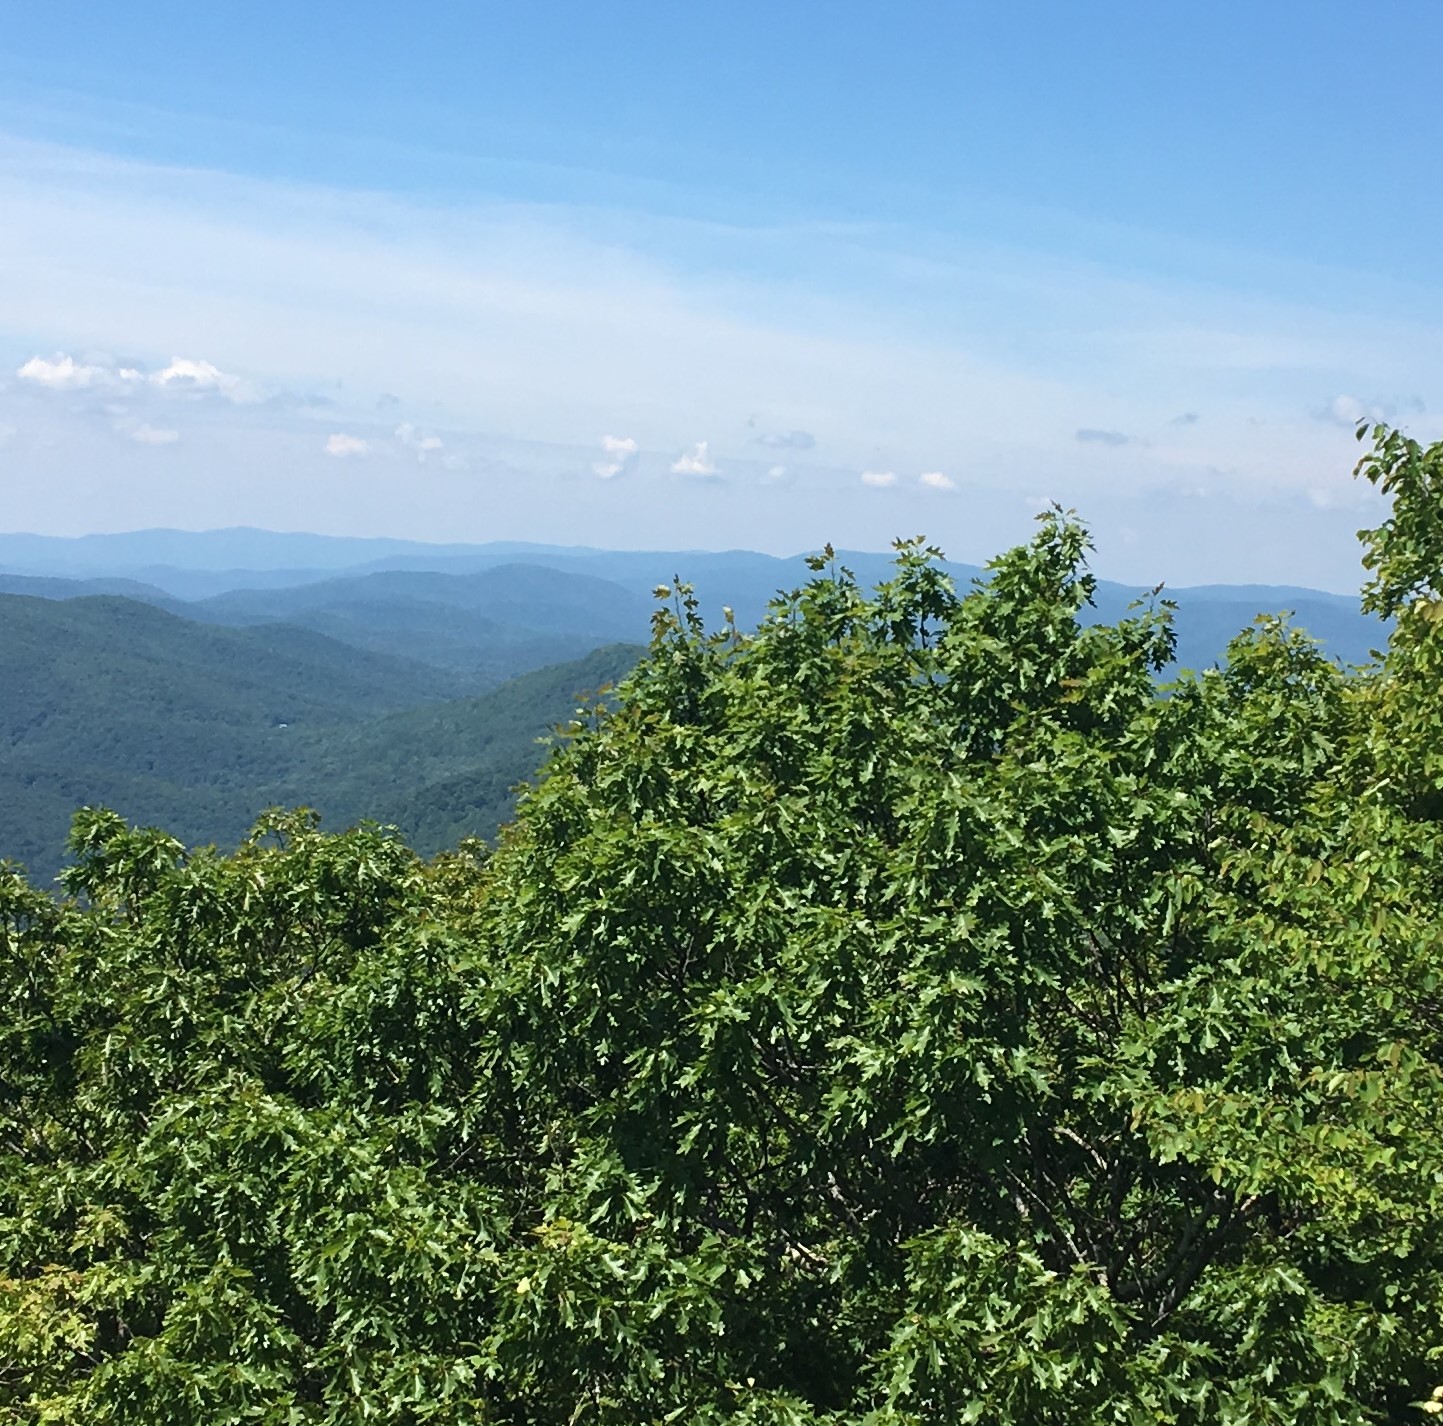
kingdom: Plantae
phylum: Tracheophyta
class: Magnoliopsida
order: Fagales
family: Fagaceae
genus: Quercus
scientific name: Quercus
